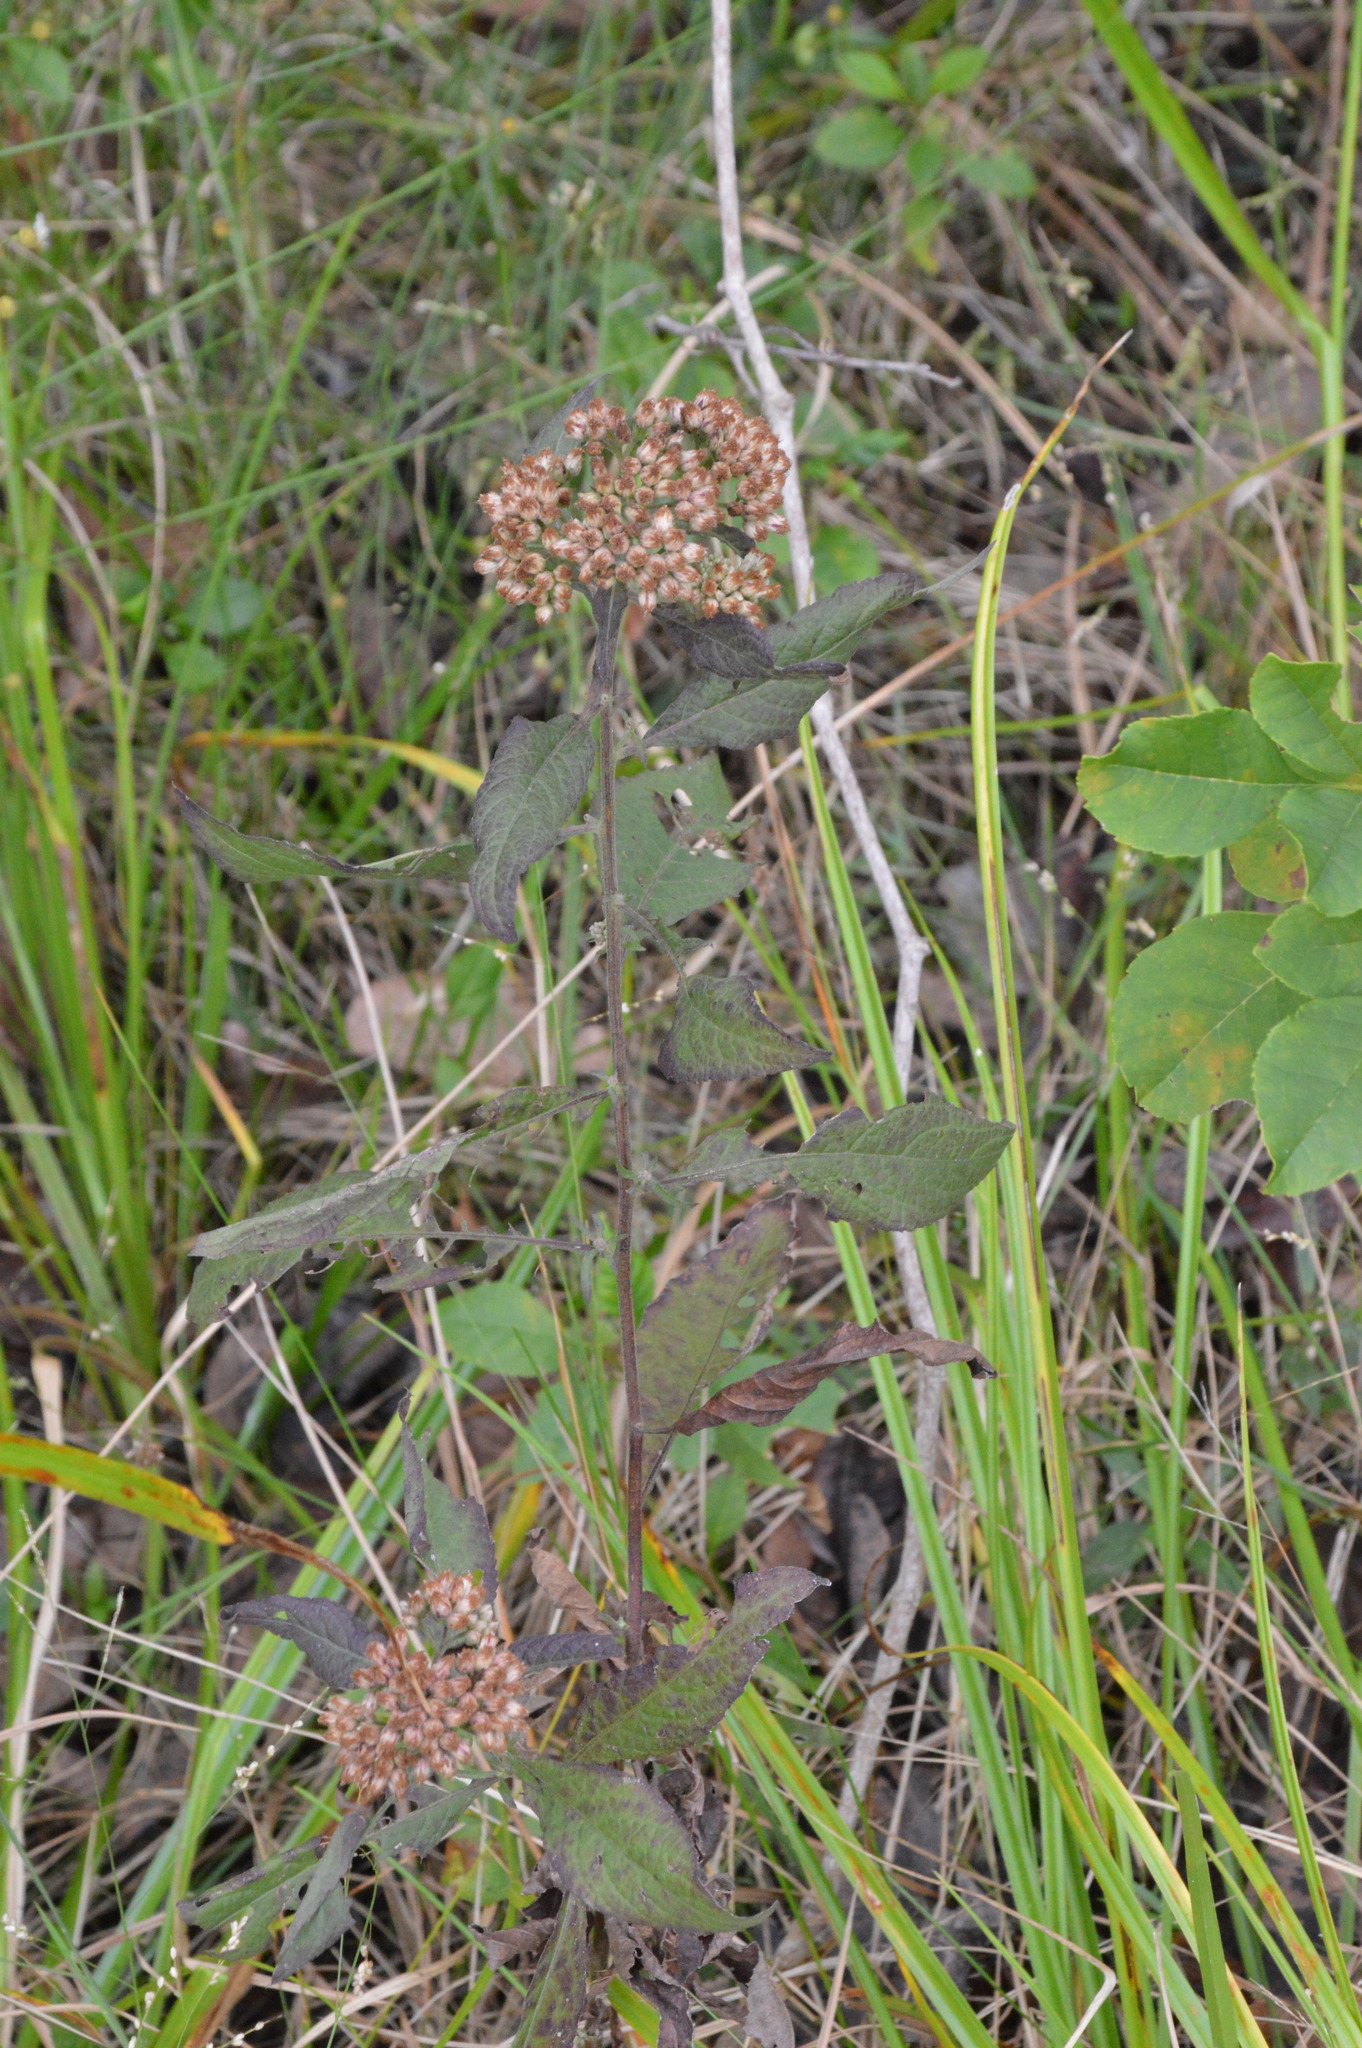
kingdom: Plantae
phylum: Tracheophyta
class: Magnoliopsida
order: Asterales
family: Asteraceae
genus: Pluchea
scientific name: Pluchea camphorata
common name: Camphor pluchea
